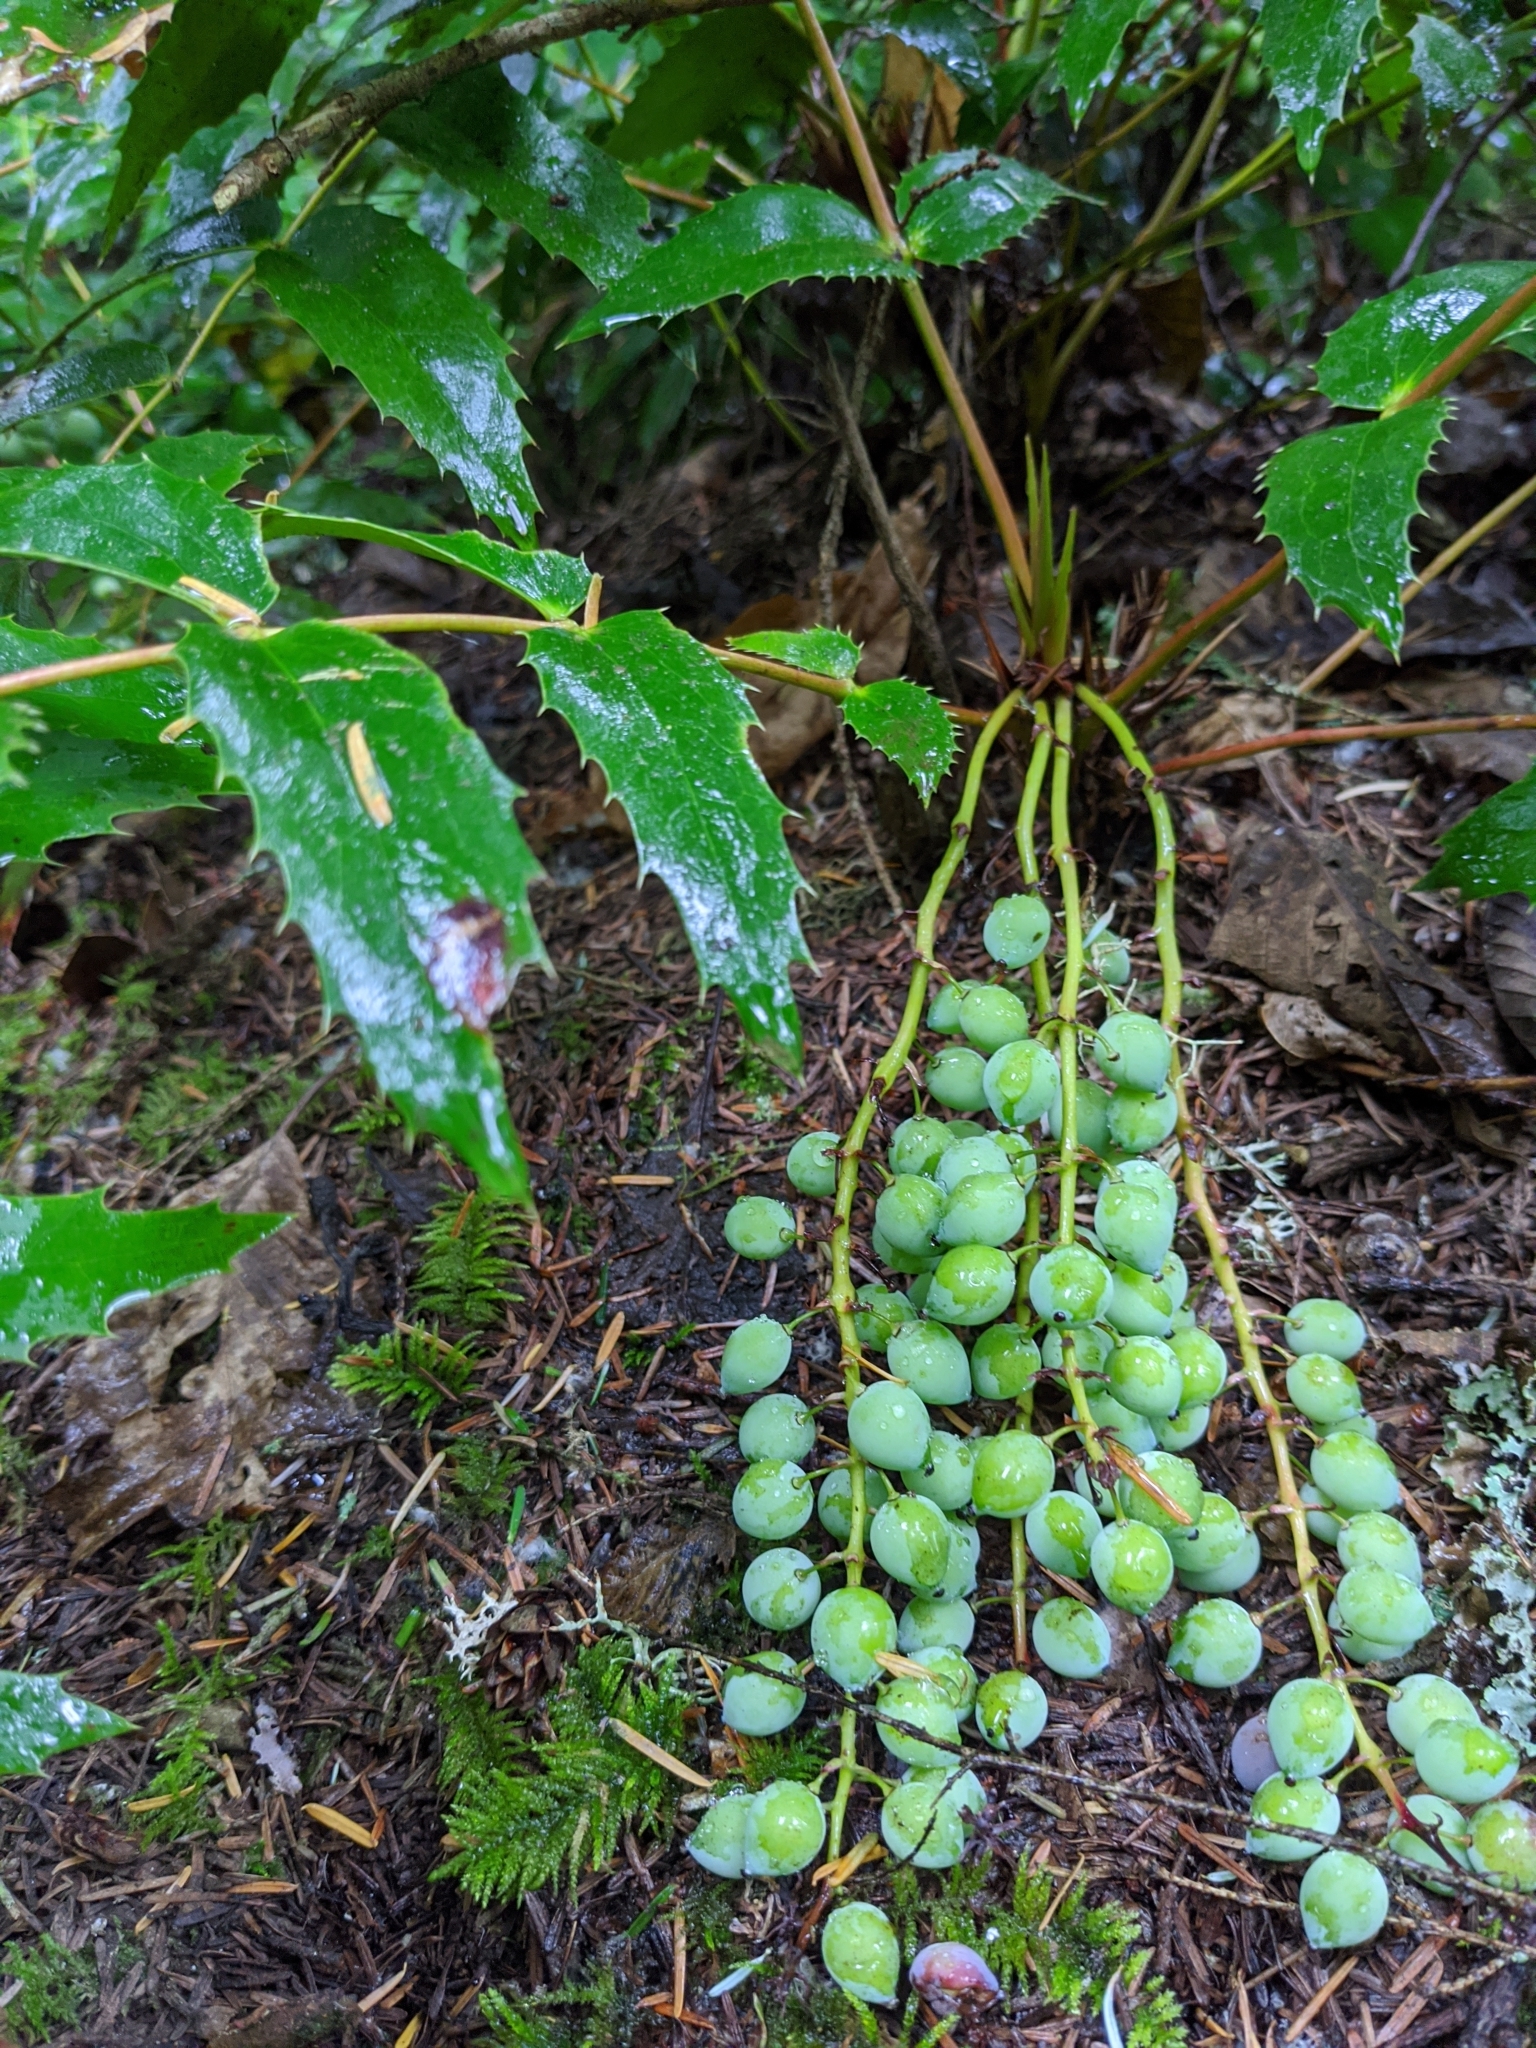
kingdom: Plantae
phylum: Tracheophyta
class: Magnoliopsida
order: Ranunculales
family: Berberidaceae
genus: Mahonia
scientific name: Mahonia nervosa
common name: Cascade oregon-grape
